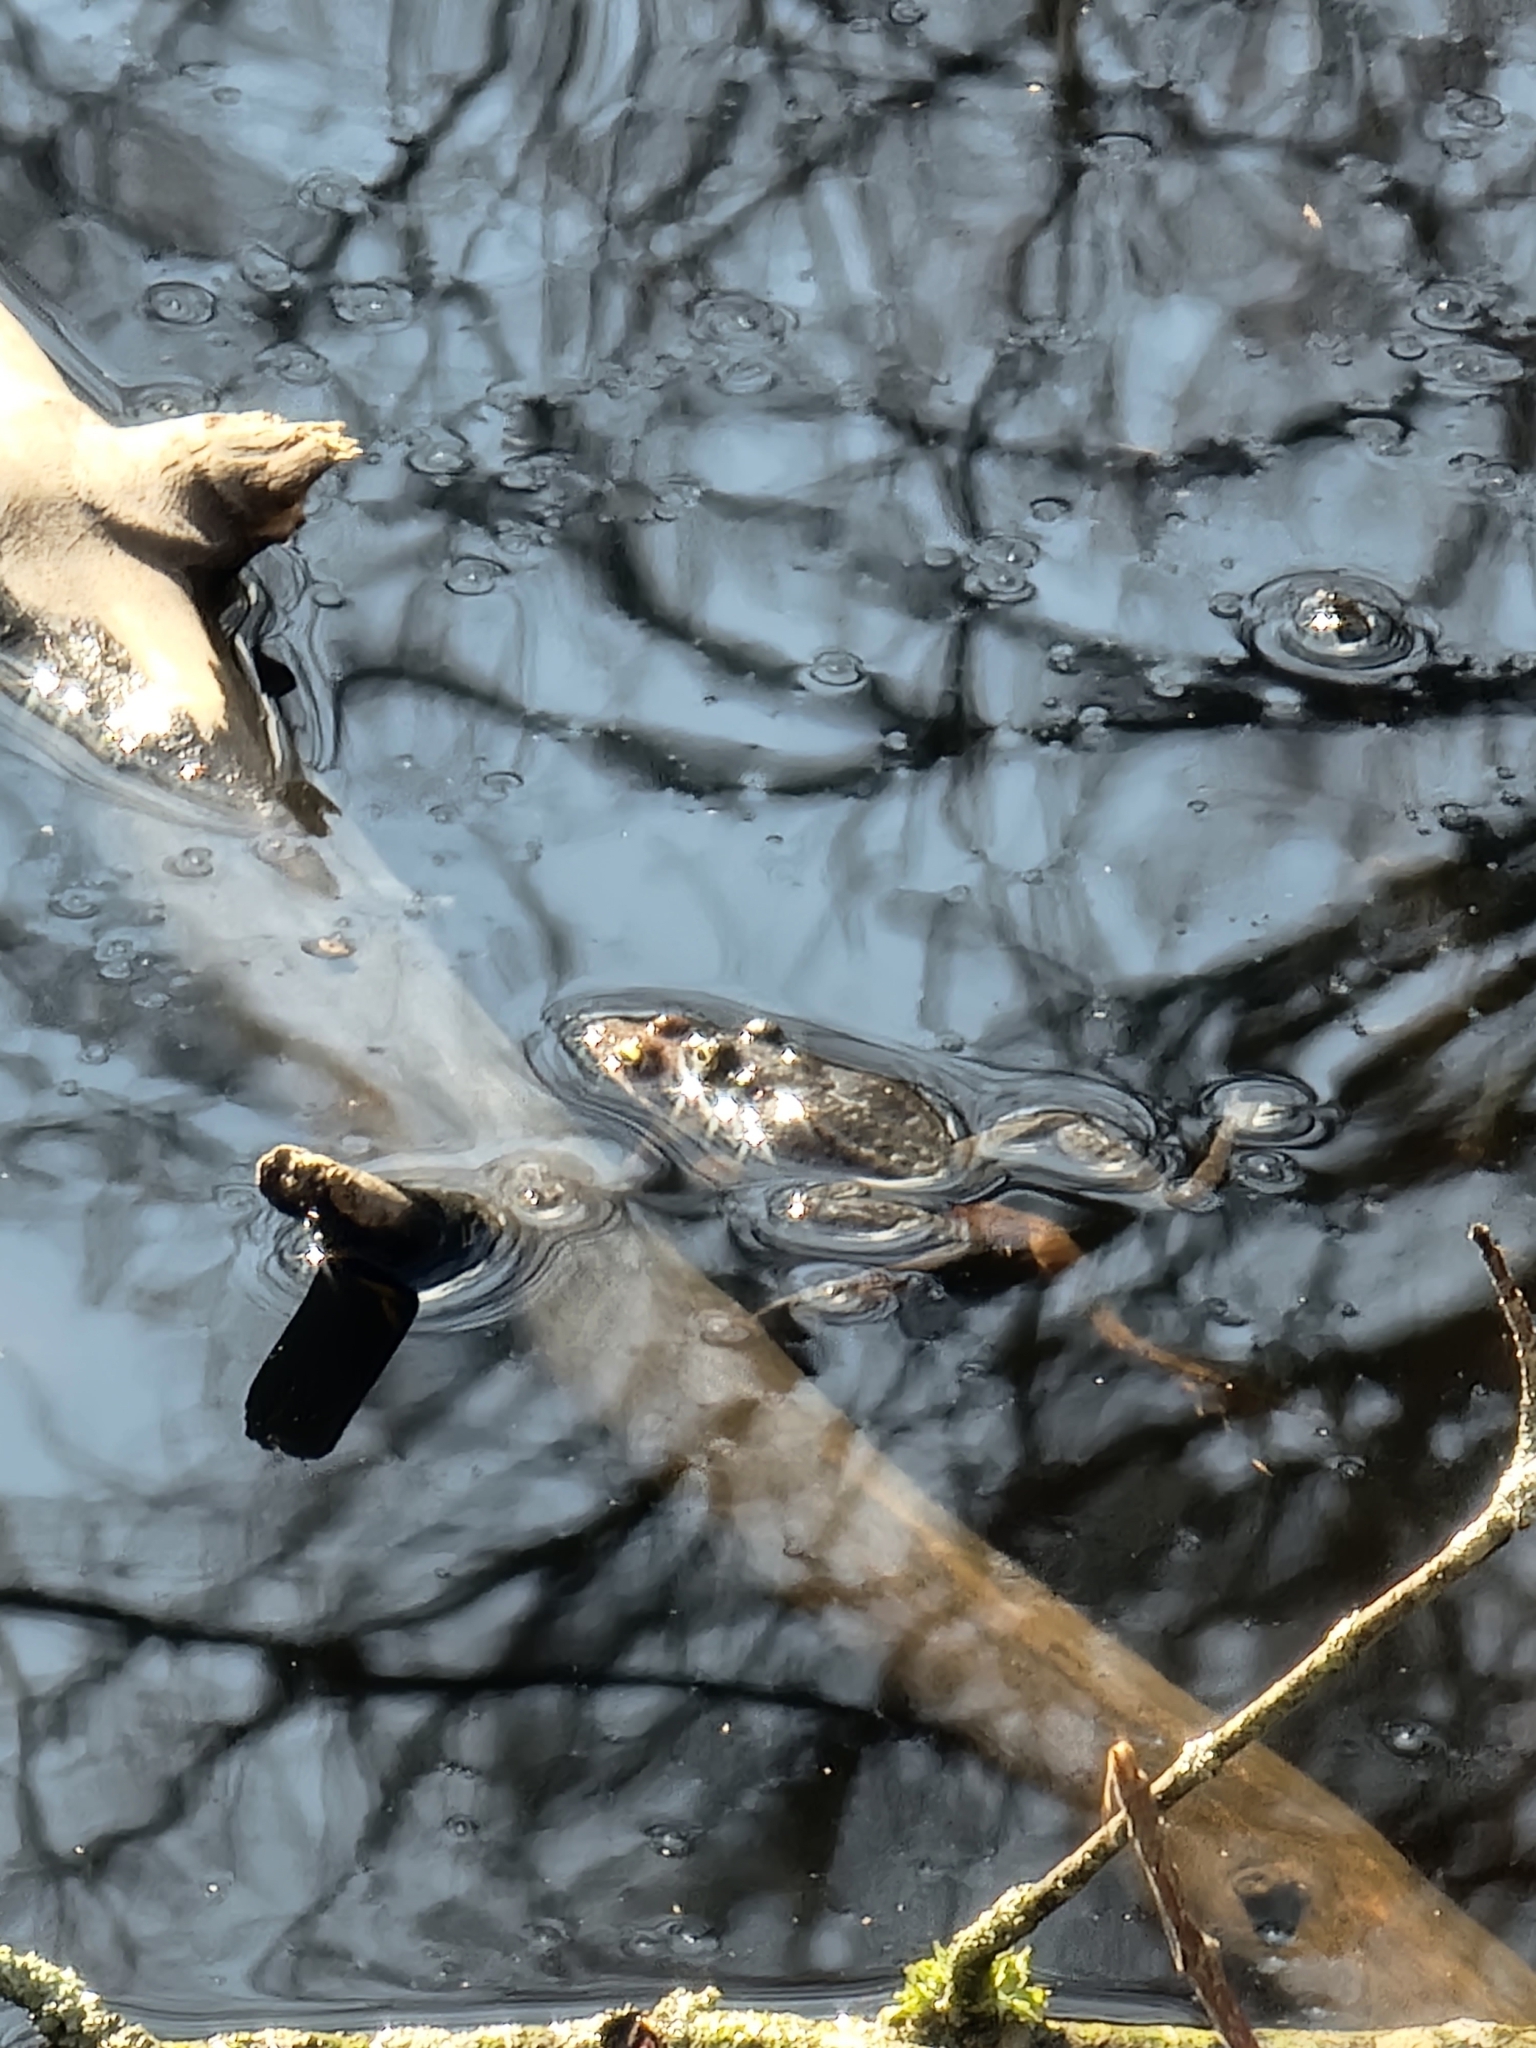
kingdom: Animalia
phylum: Chordata
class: Amphibia
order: Anura
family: Ranidae
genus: Lithobates
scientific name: Lithobates sylvaticus
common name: Wood frog
